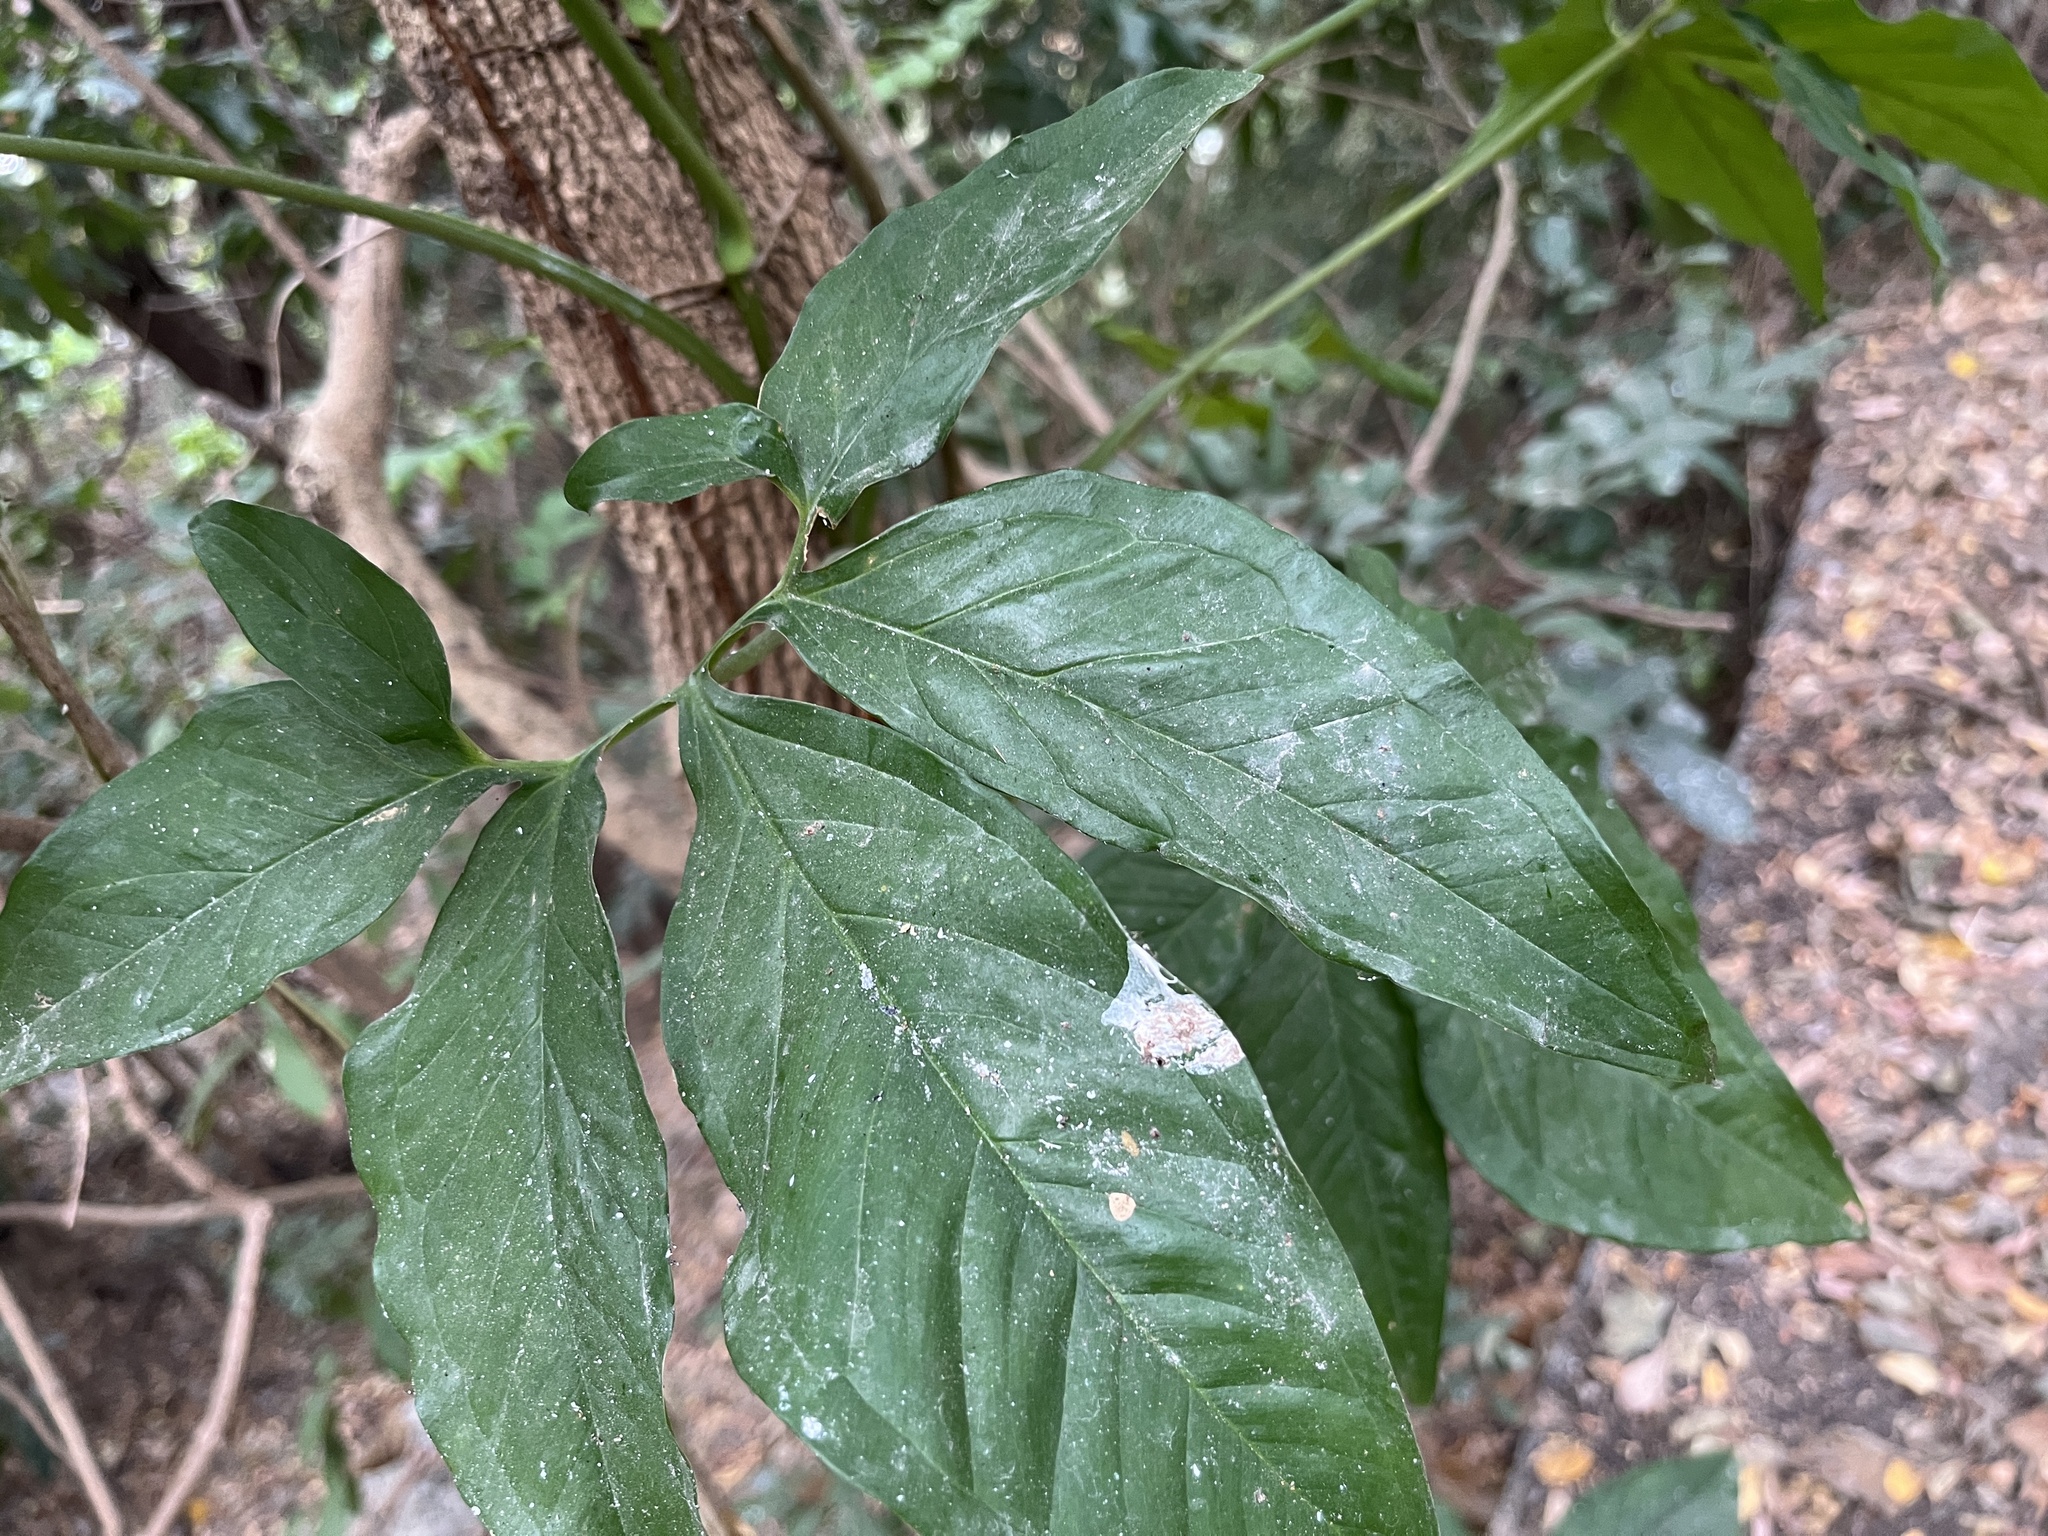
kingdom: Plantae
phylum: Tracheophyta
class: Liliopsida
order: Alismatales
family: Araceae
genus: Syngonium
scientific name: Syngonium angustatum
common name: Fivefingers
